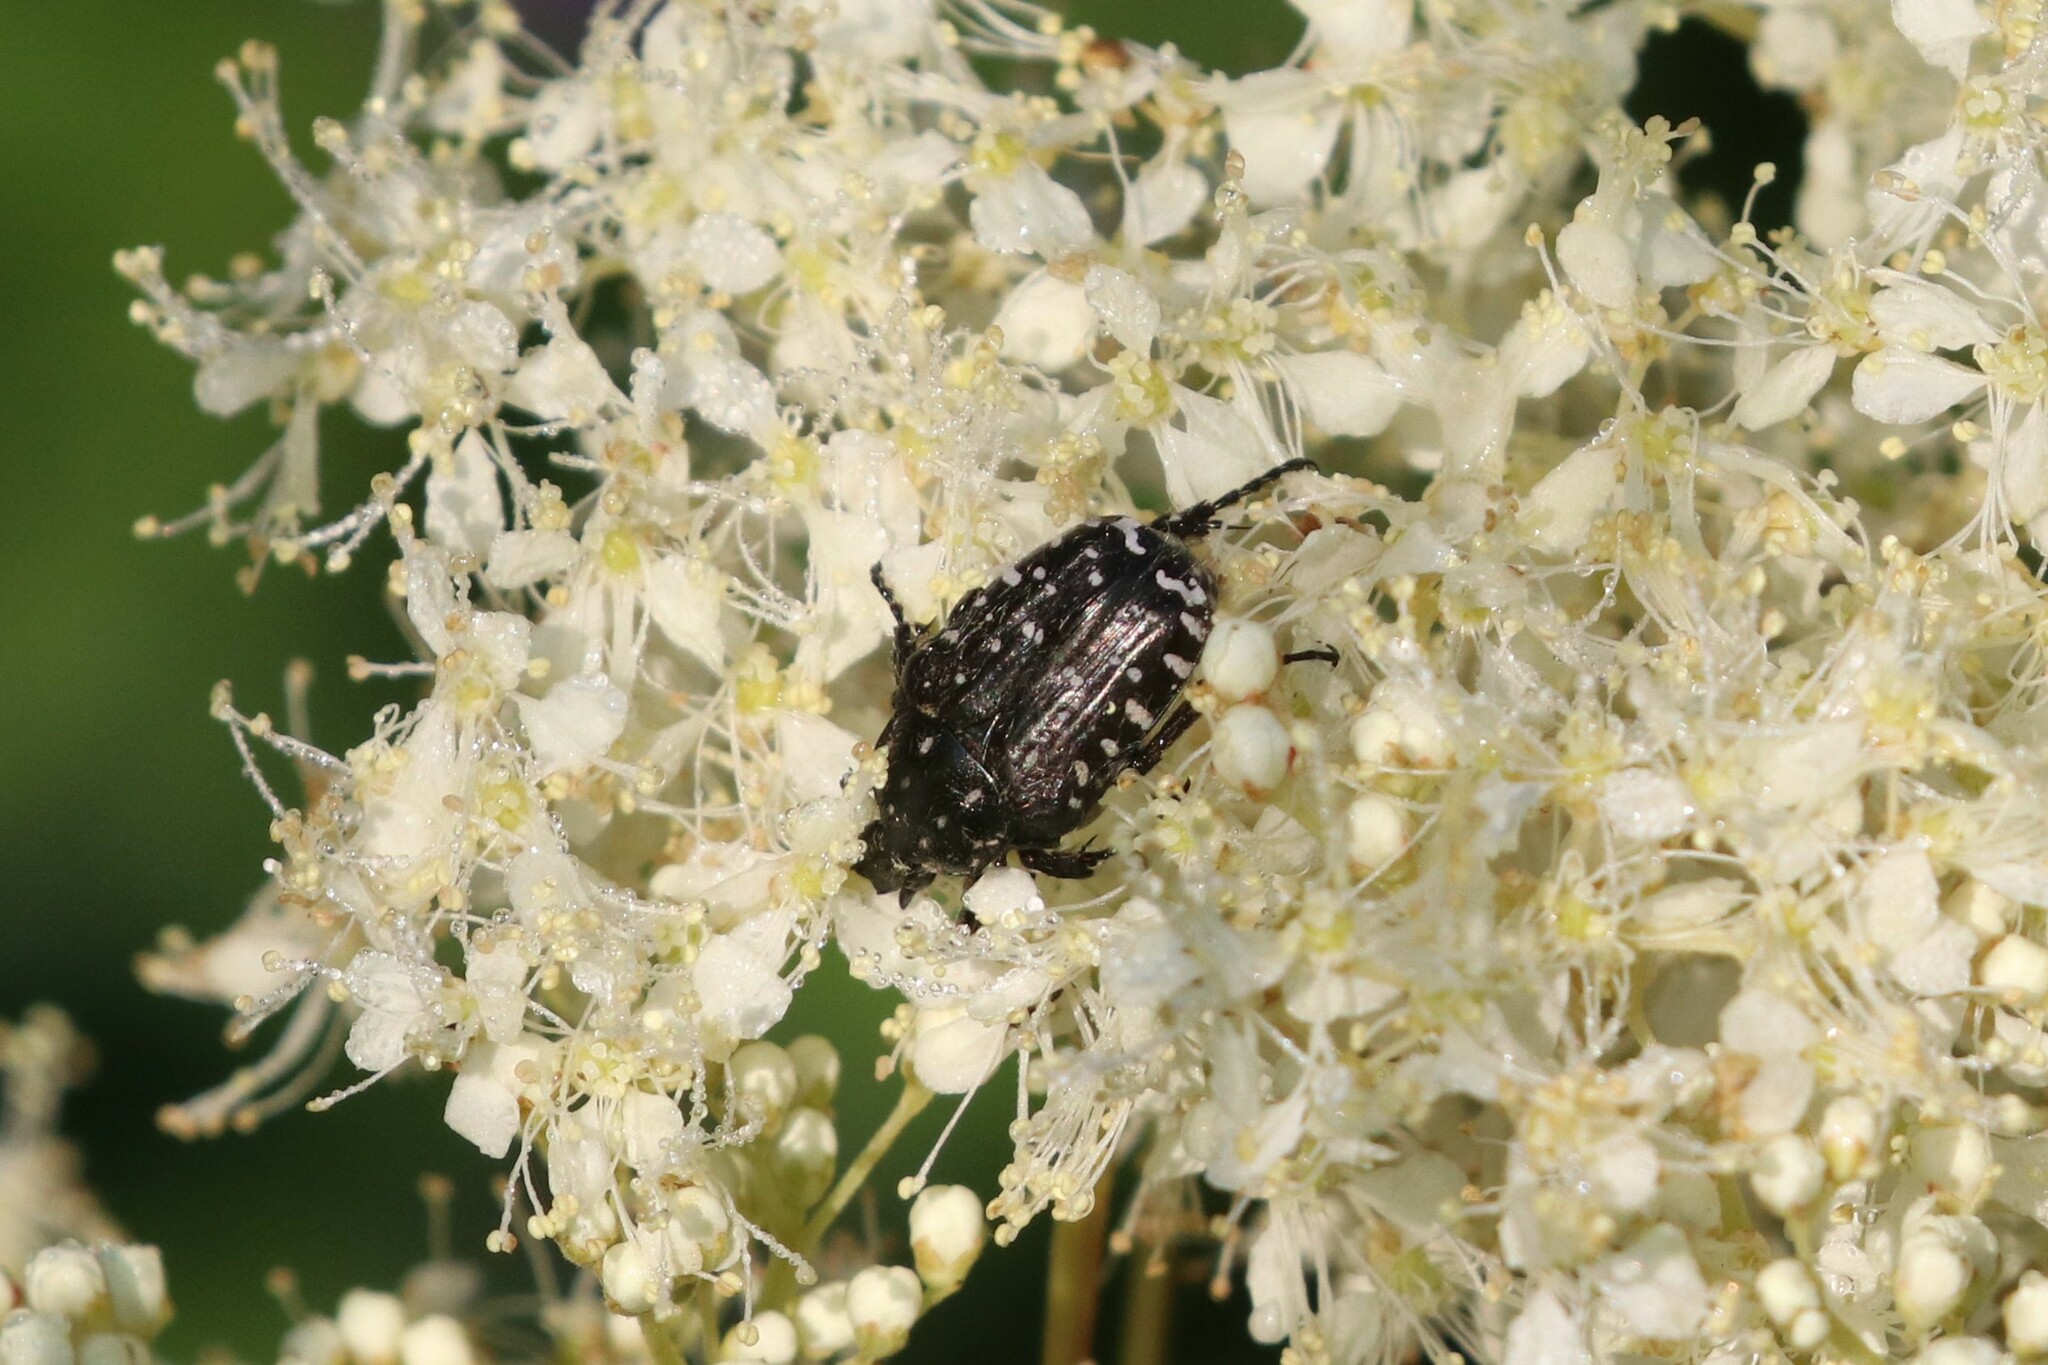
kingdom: Animalia
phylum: Arthropoda
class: Insecta
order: Coleoptera
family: Scarabaeidae
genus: Oxythyrea
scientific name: Oxythyrea funesta
